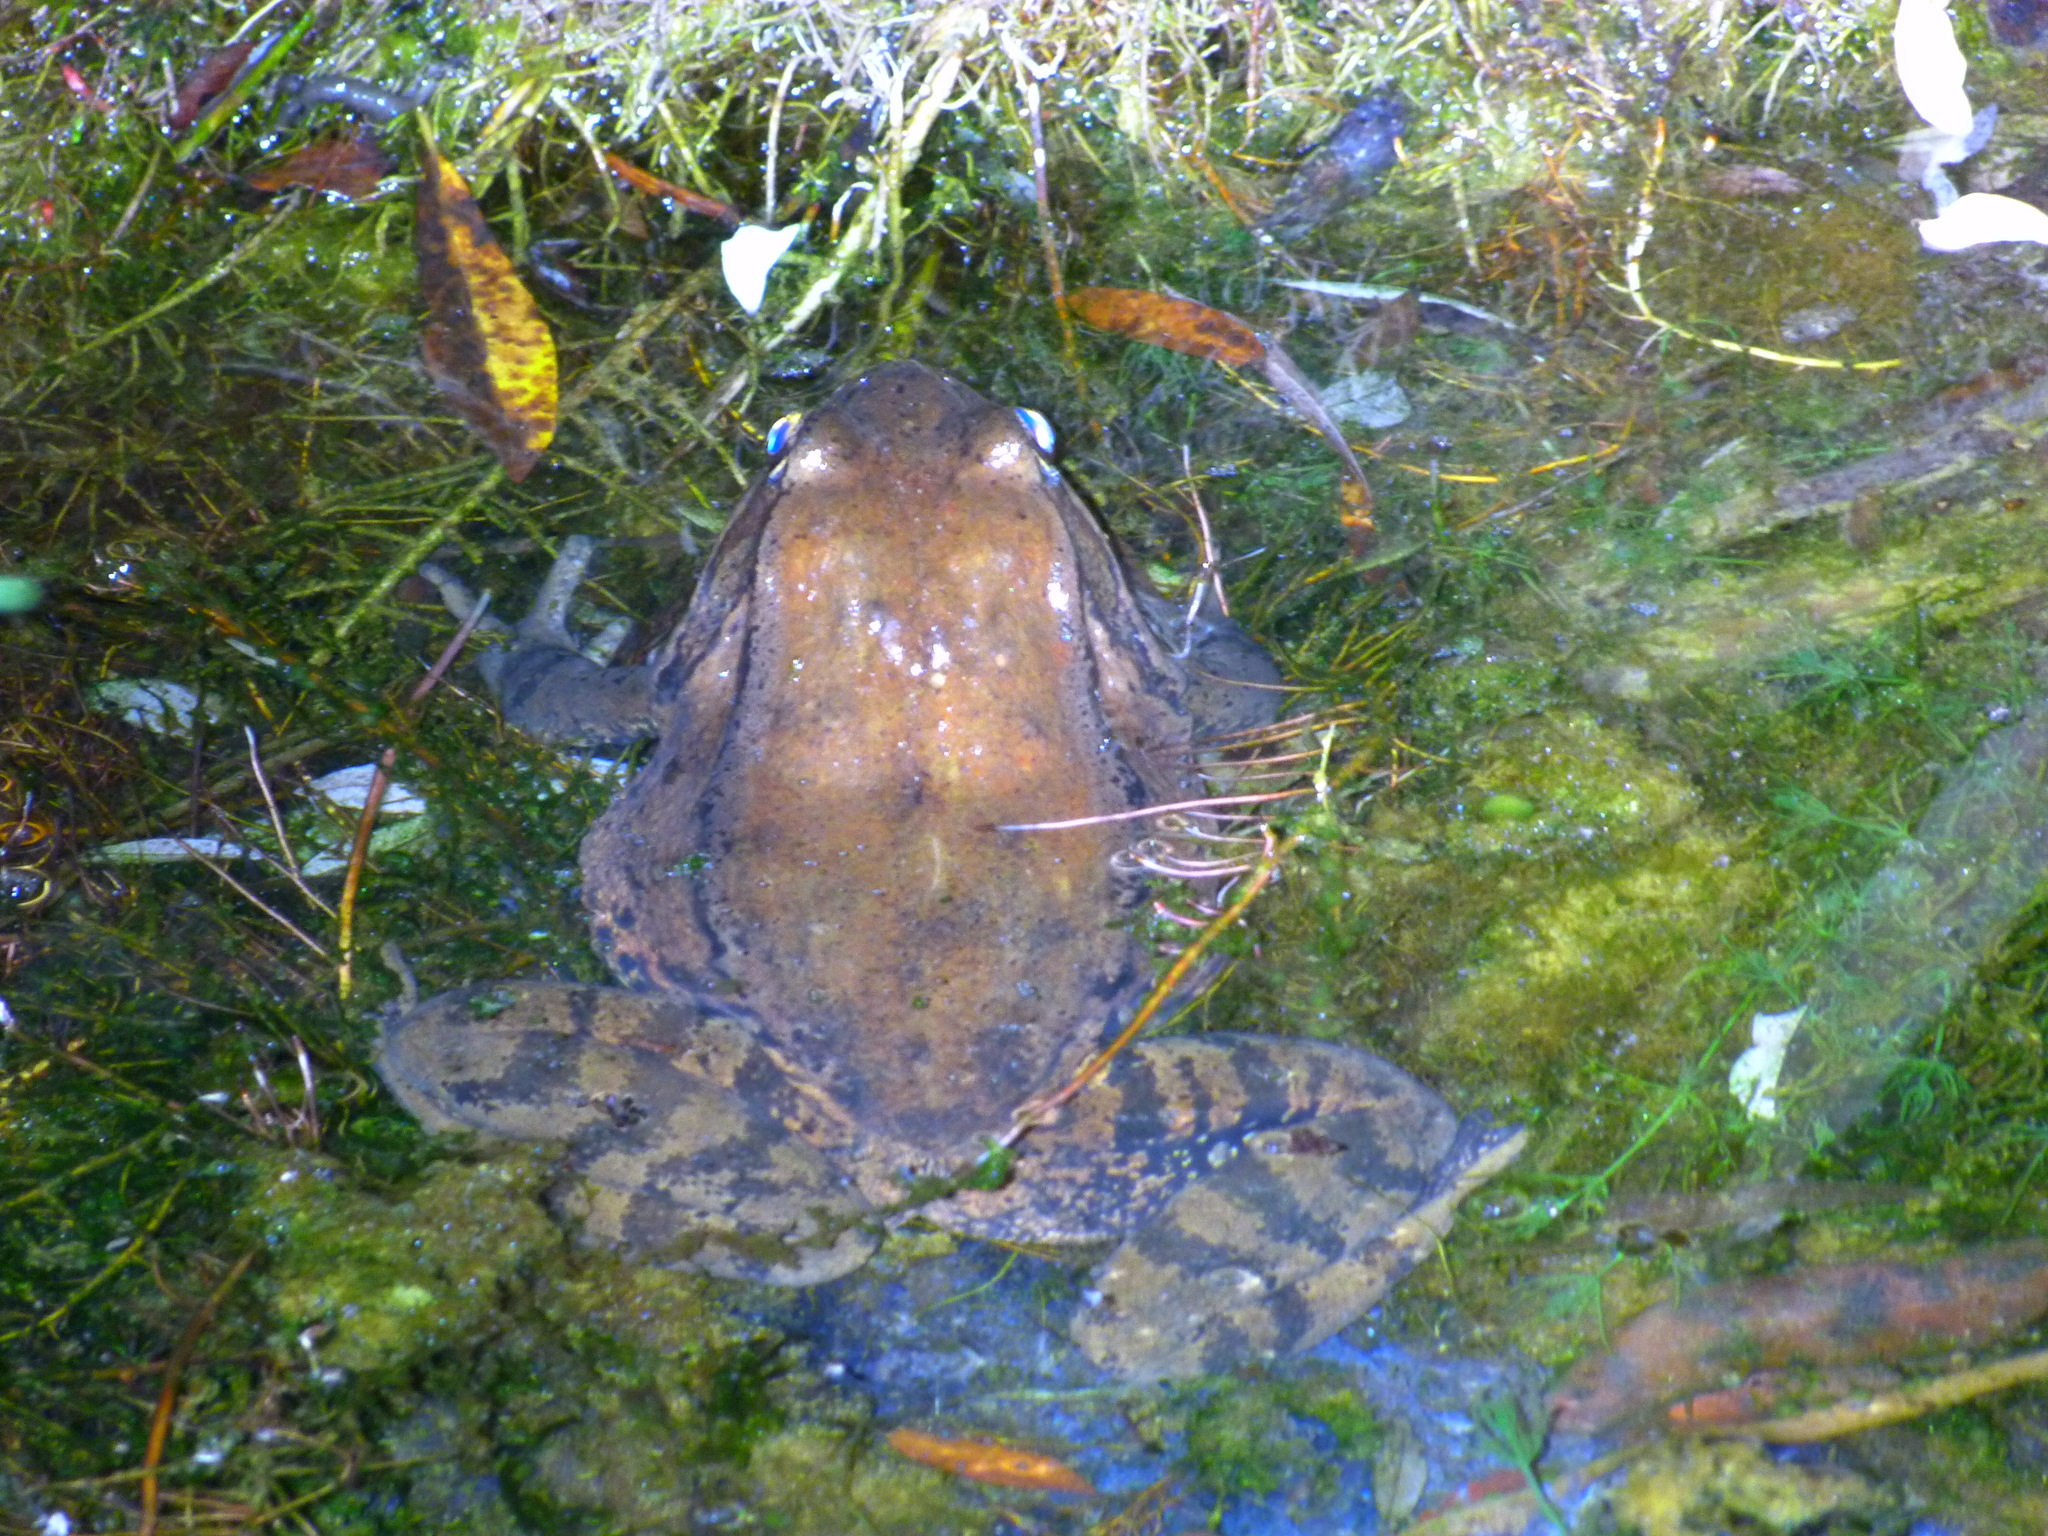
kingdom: Animalia
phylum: Chordata
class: Amphibia
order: Anura
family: Ranidae
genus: Rana
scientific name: Rana draytonii
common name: California red-legged frog
